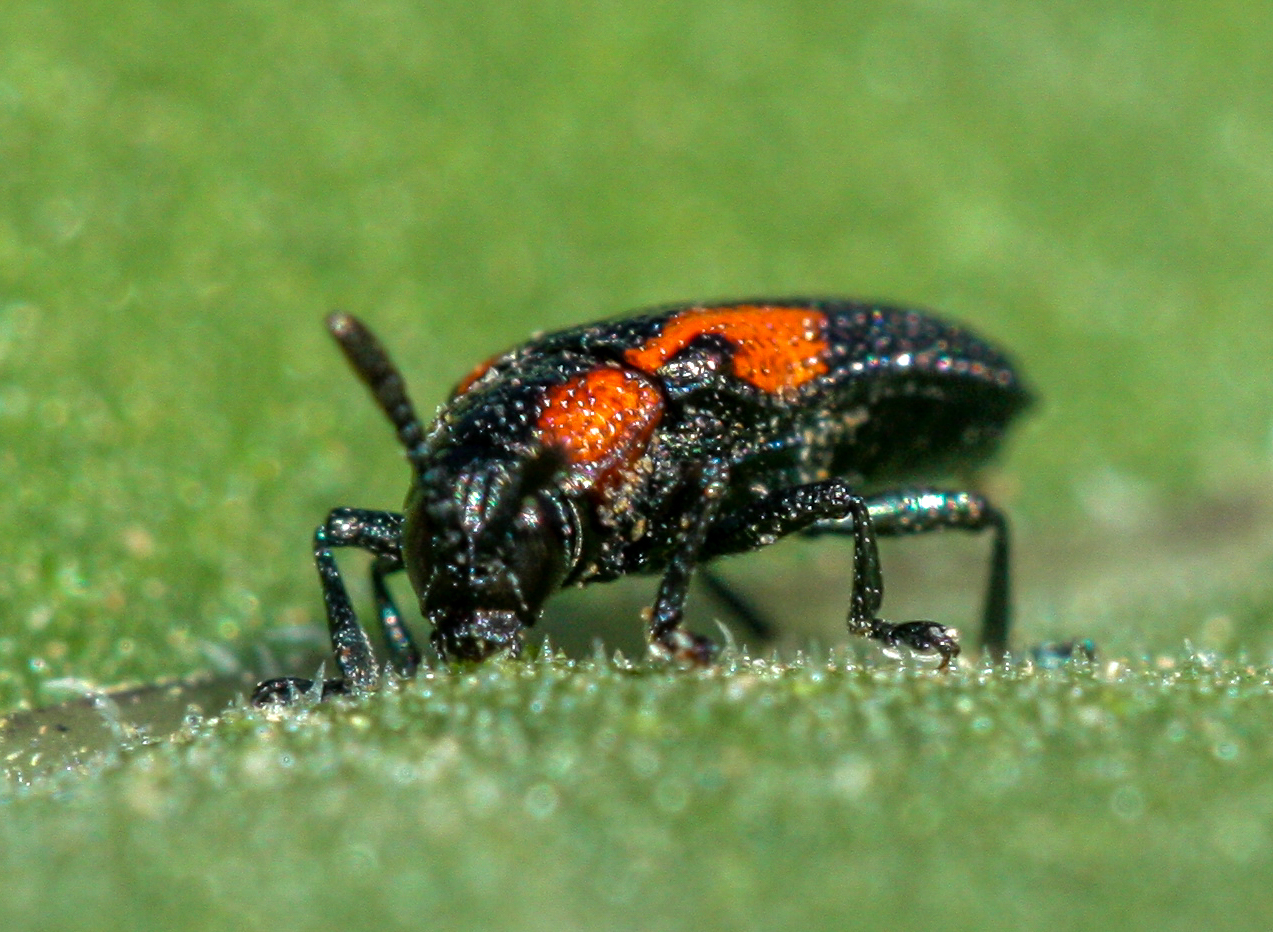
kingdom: Animalia
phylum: Arthropoda
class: Insecta
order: Coleoptera
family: Chrysomelidae
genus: Microrhopala
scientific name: Microrhopala rubrolineata
